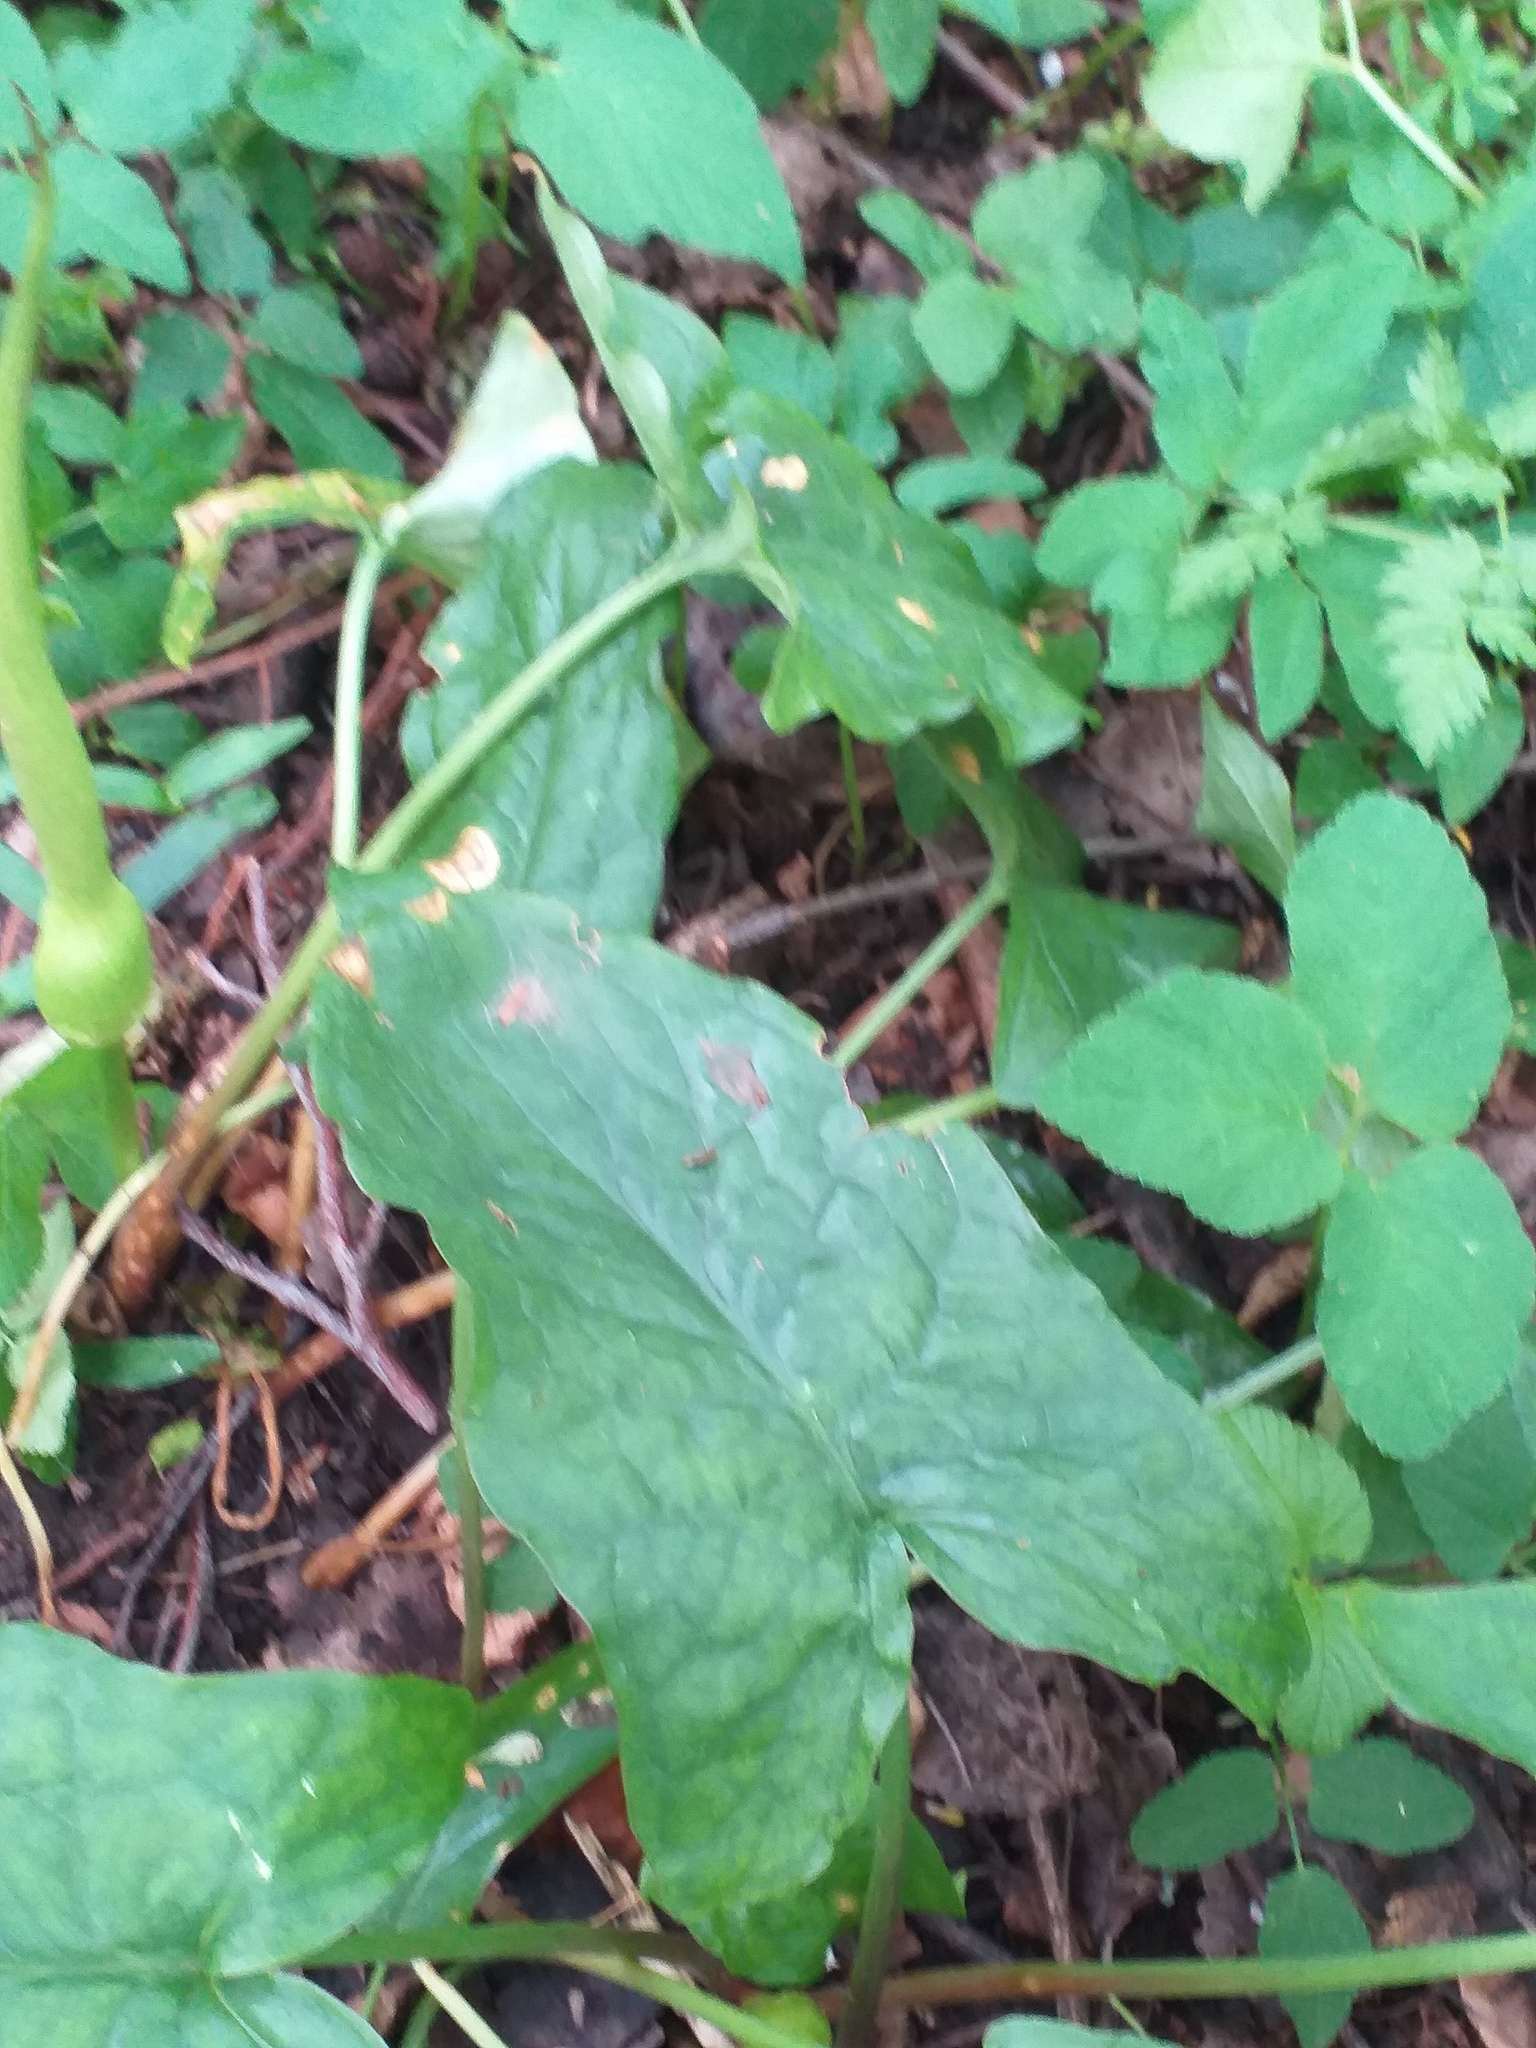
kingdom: Fungi
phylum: Ascomycota
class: Sordariomycetes
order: Glomerellales
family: Plectosphaerellaceae
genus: Spermosporina
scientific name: Spermosporina aricola
